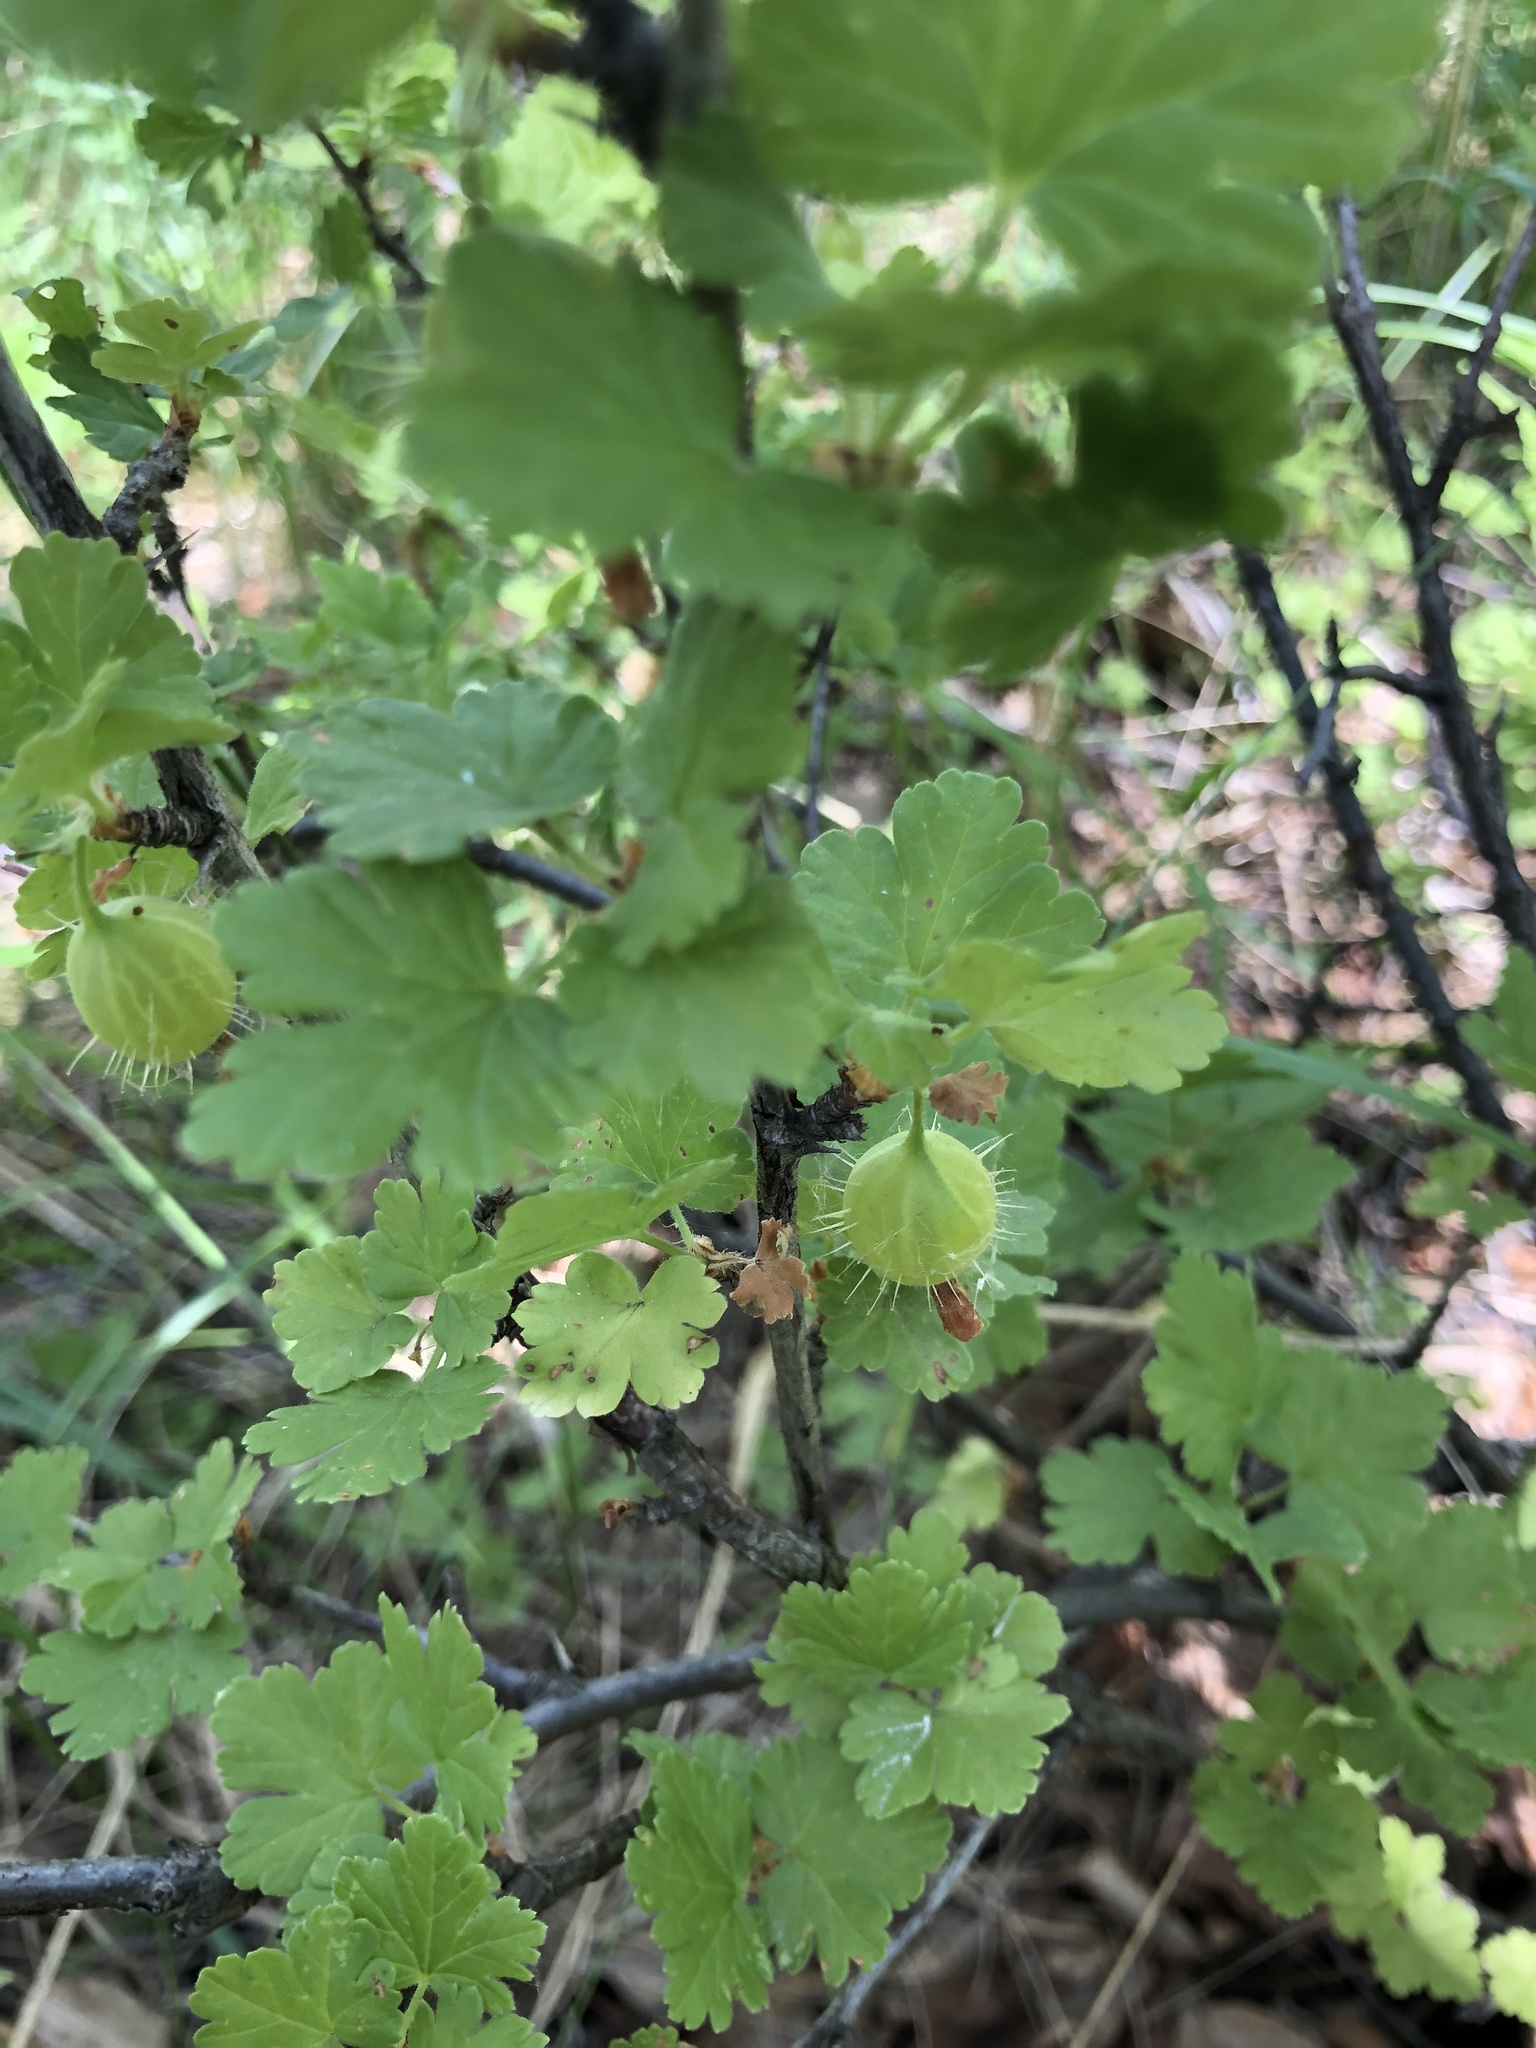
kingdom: Plantae
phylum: Tracheophyta
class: Magnoliopsida
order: Saxifragales
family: Grossulariaceae
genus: Ribes
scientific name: Ribes uva-crispa
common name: Gooseberry
